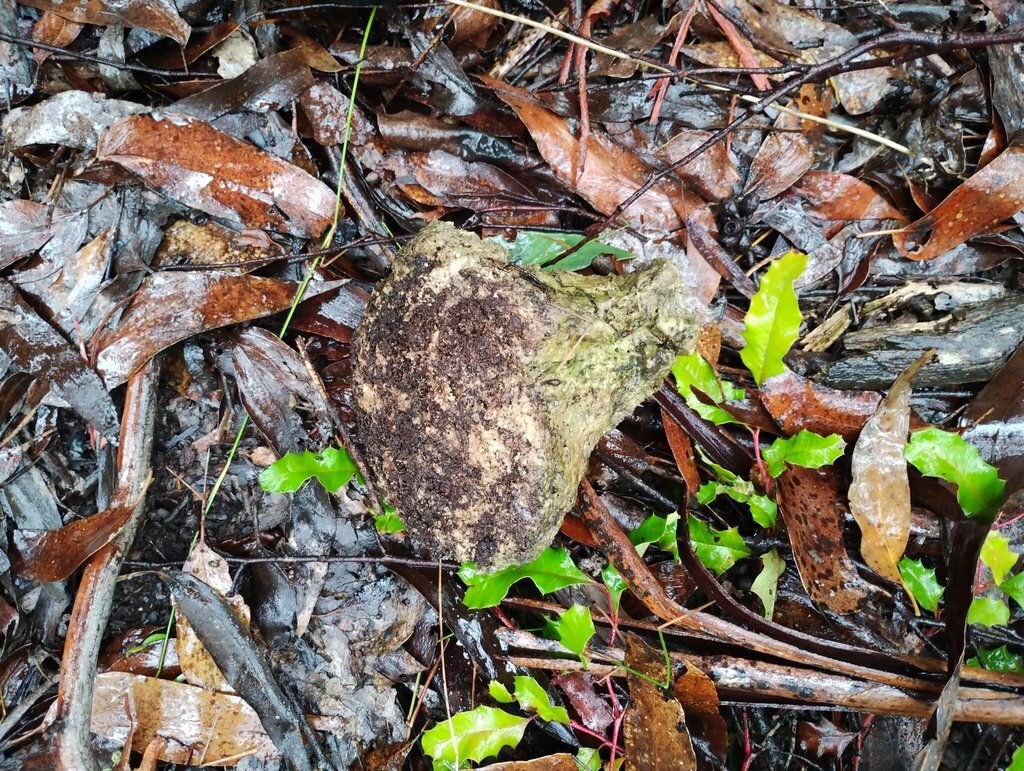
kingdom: Fungi
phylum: Basidiomycota
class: Agaricomycetes
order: Polyporales
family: Laetiporaceae
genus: Laetiporus
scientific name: Laetiporus portentosus
